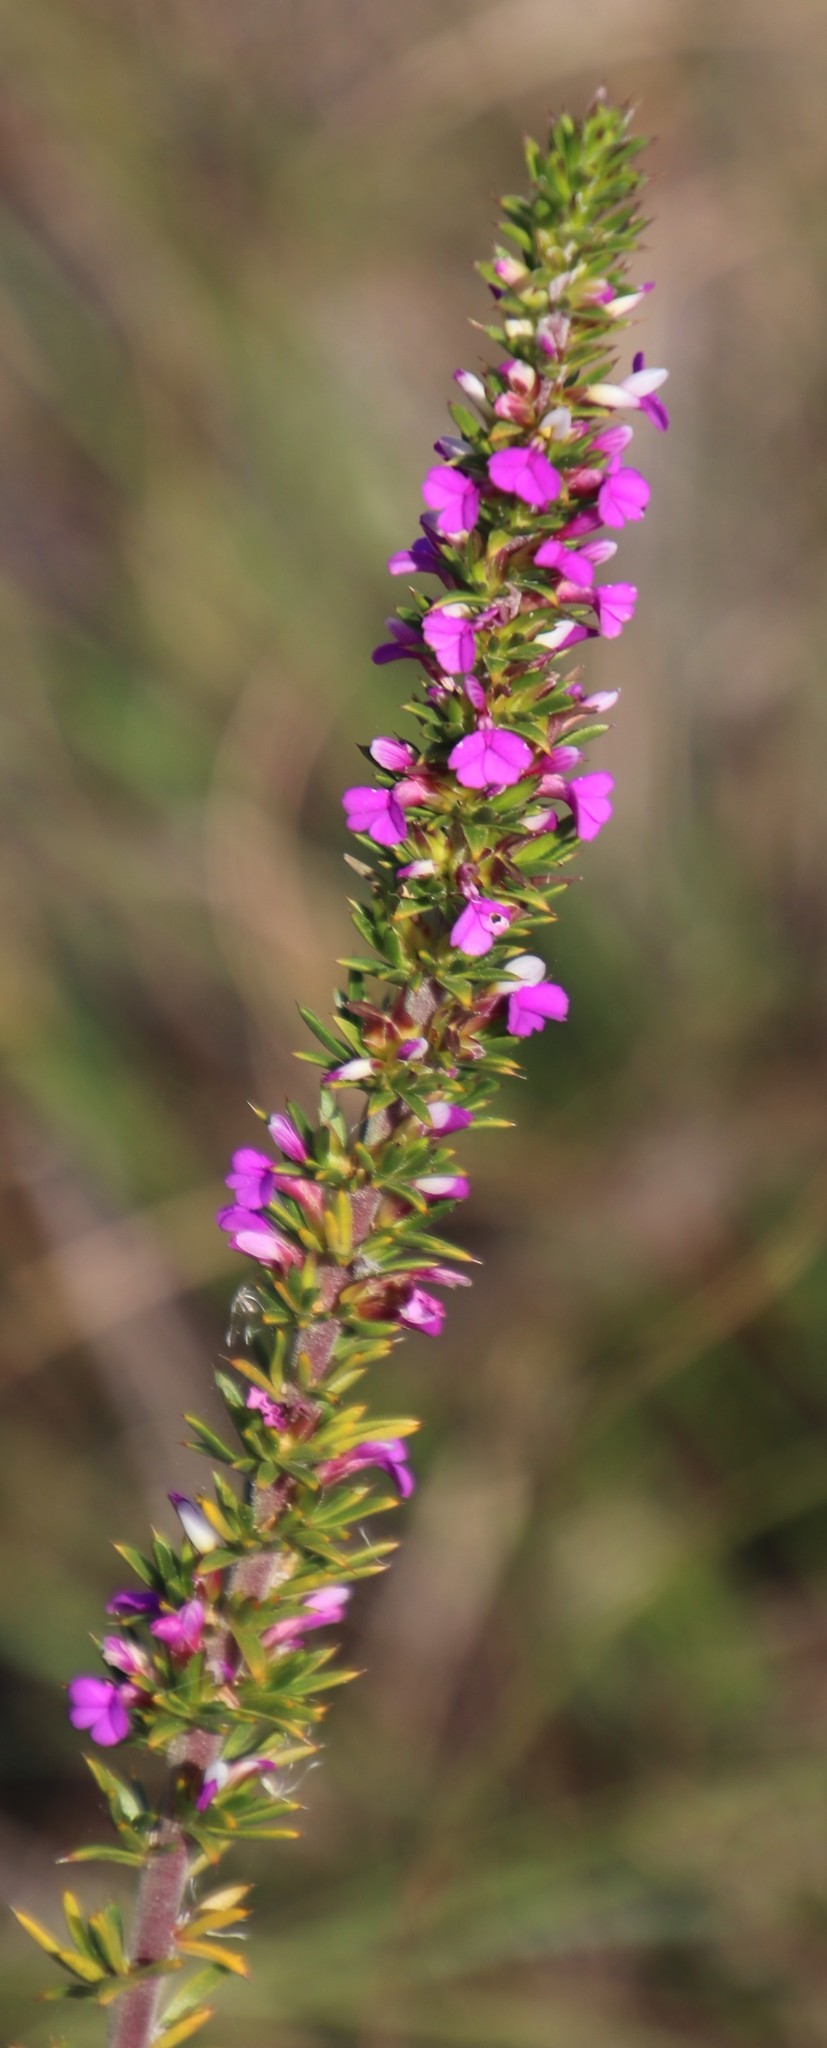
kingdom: Plantae
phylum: Tracheophyta
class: Magnoliopsida
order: Fabales
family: Polygalaceae
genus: Muraltia
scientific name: Muraltia heisteria
